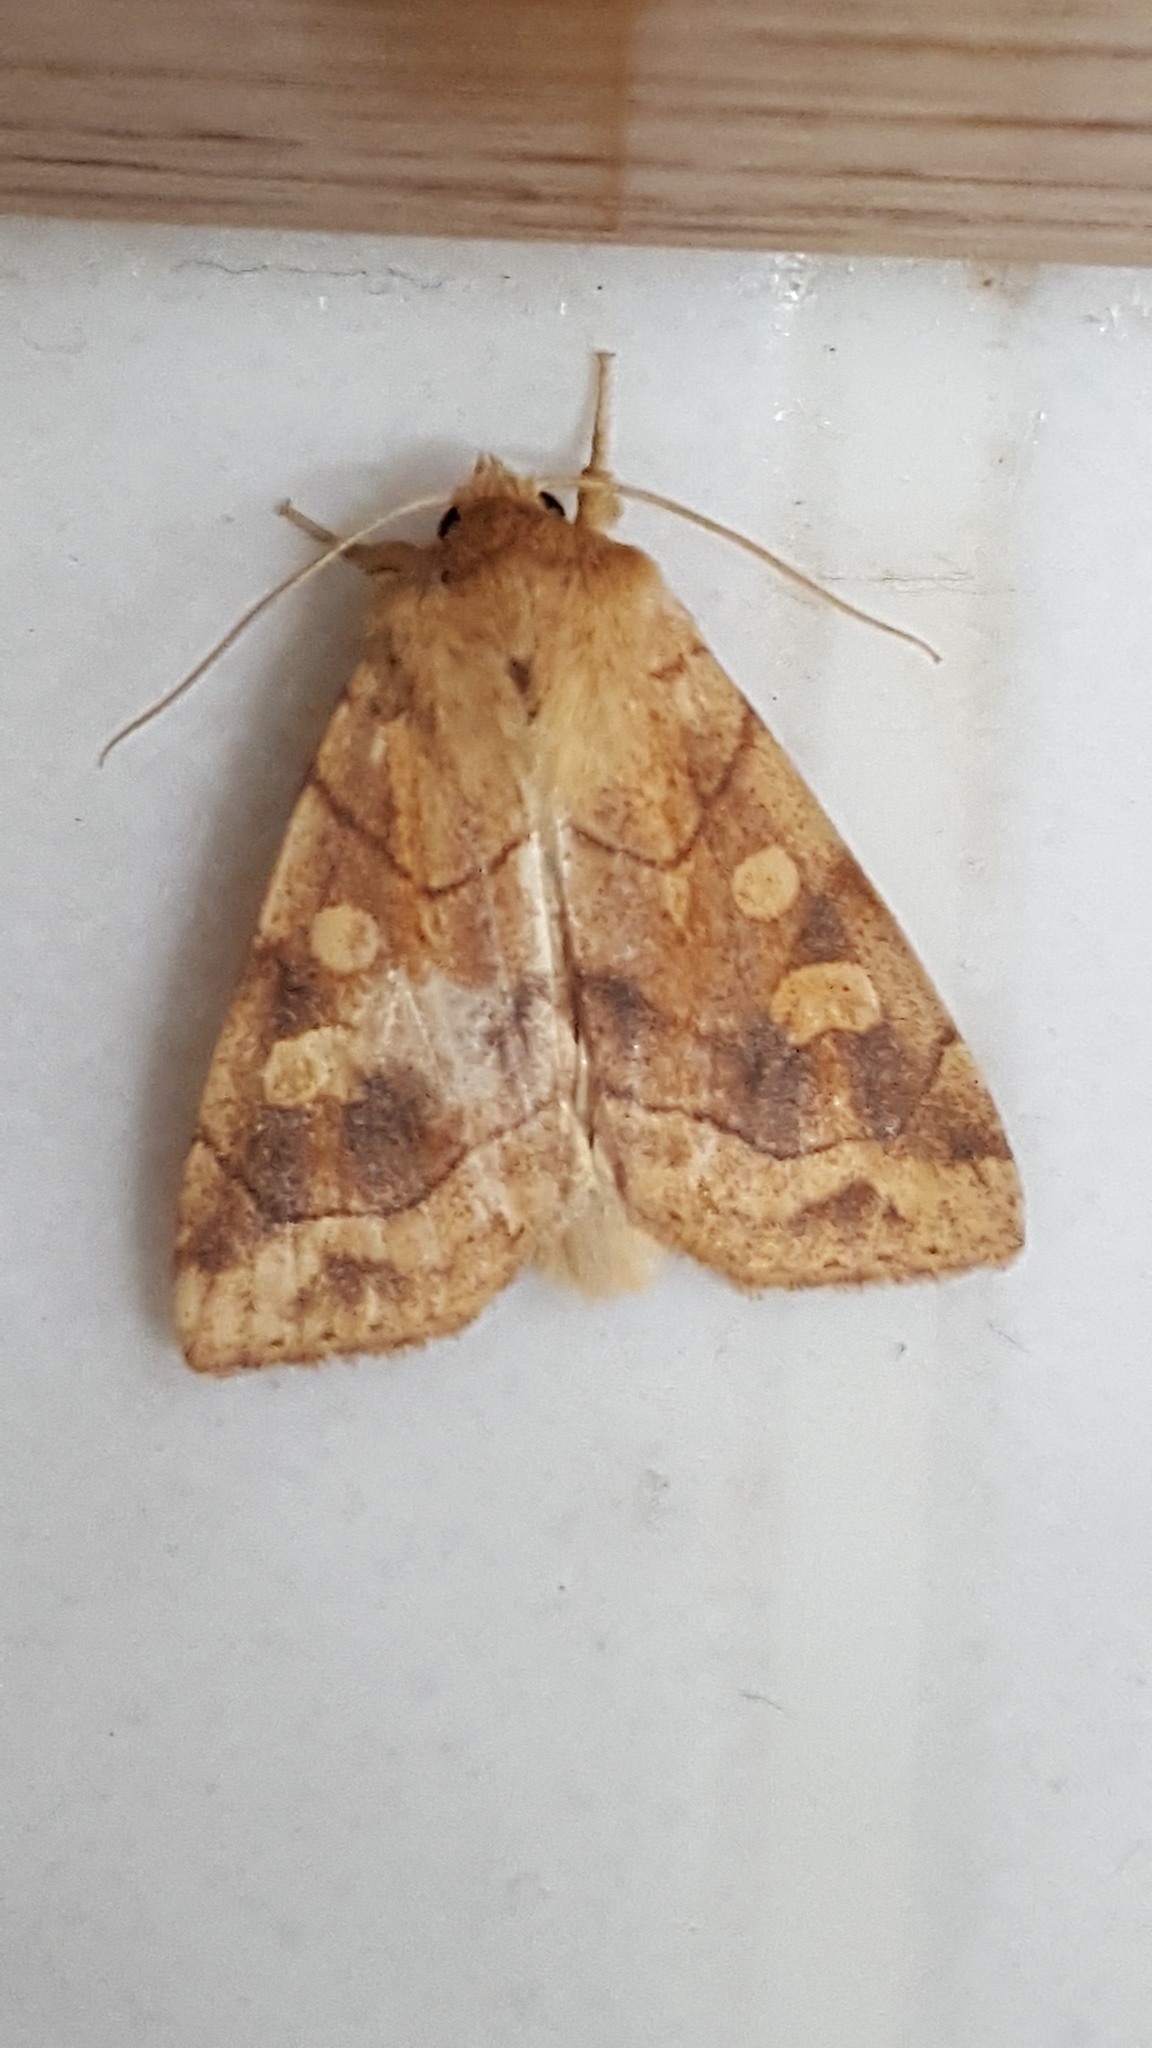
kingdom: Animalia
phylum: Arthropoda
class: Insecta
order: Lepidoptera
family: Noctuidae
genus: Enargia
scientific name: Enargia decolor
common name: Aspen twoleaf tier moth
